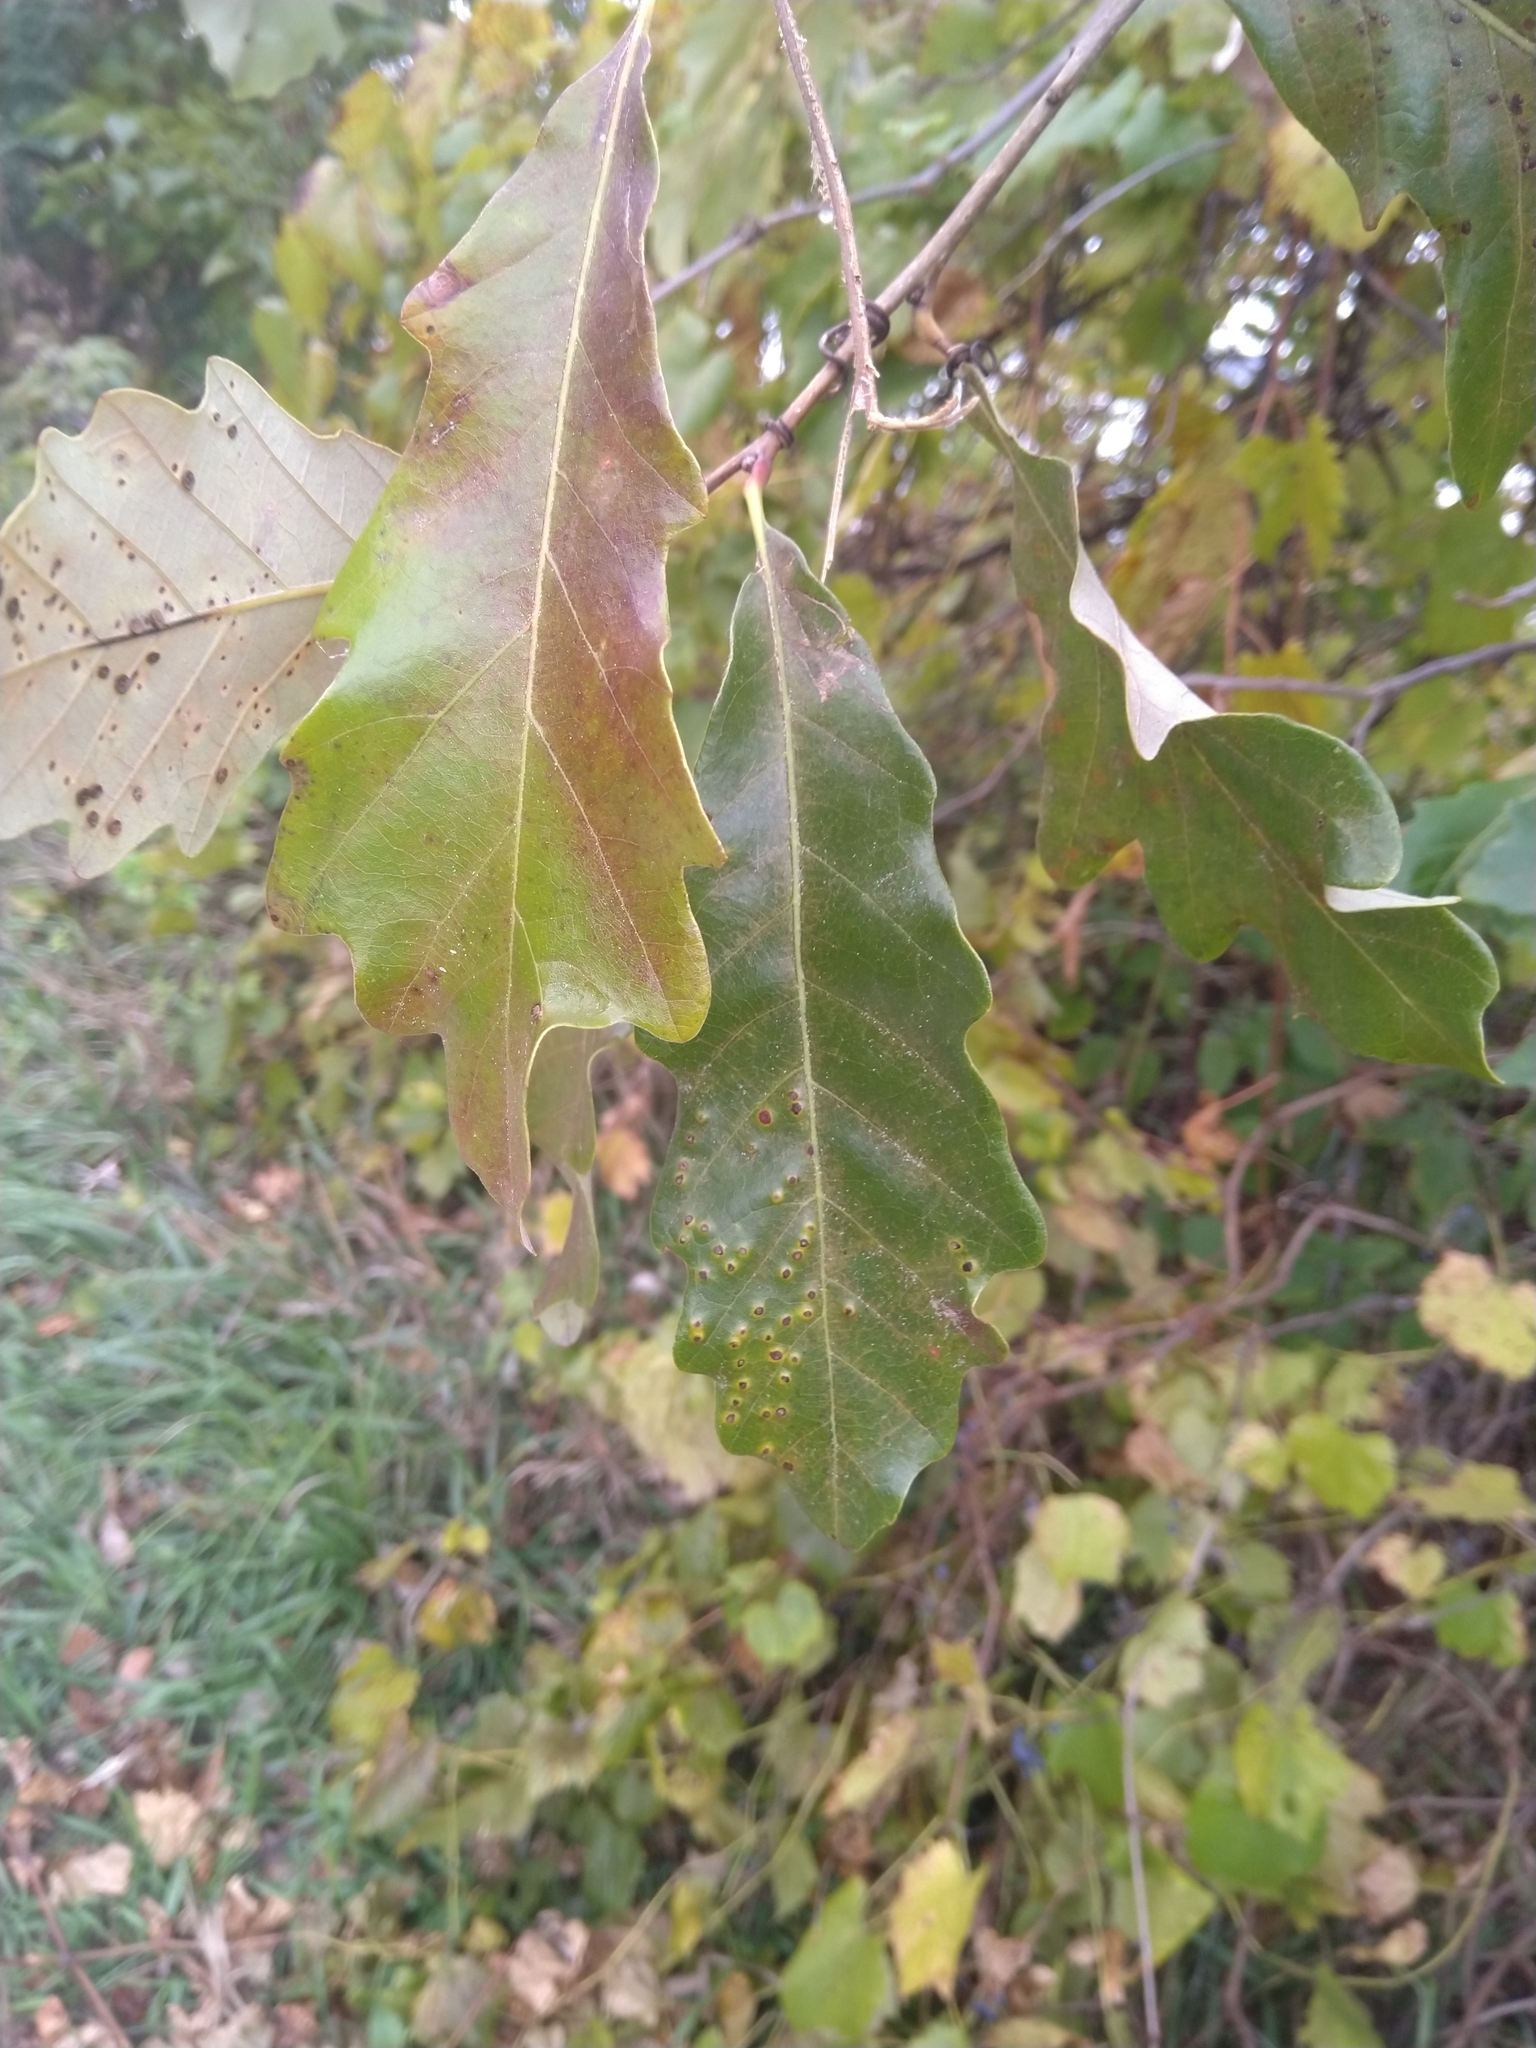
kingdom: Plantae
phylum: Tracheophyta
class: Magnoliopsida
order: Fagales
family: Fagaceae
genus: Quercus
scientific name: Quercus bicolor
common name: Swamp white oak
